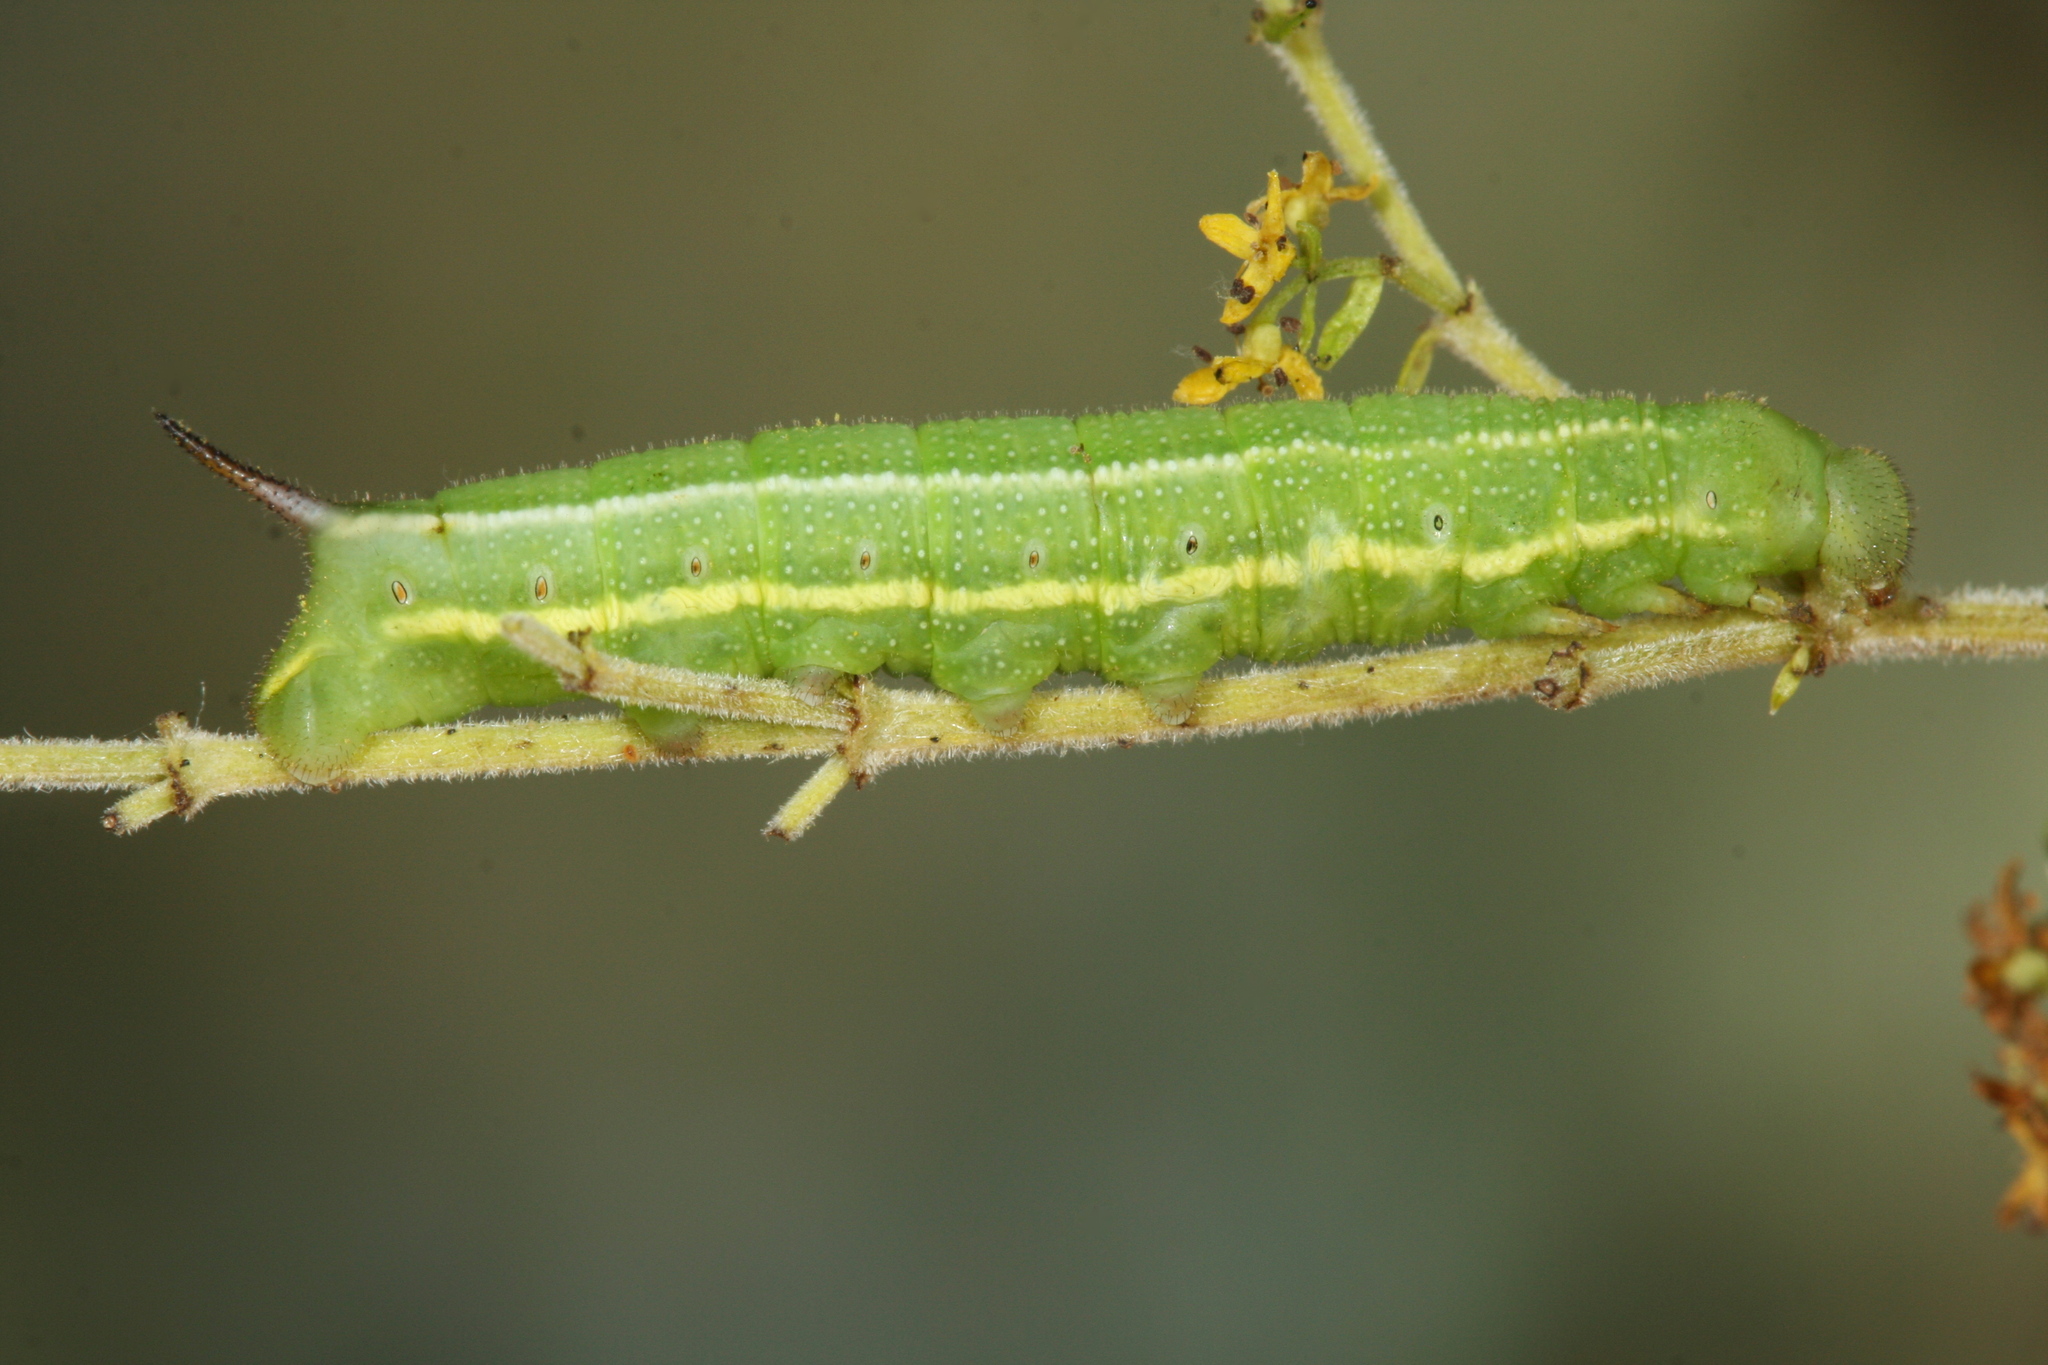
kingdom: Animalia
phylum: Arthropoda
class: Insecta
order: Lepidoptera
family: Sphingidae
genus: Macroglossum
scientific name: Macroglossum stellatarum
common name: Humming-bird hawk-moth
